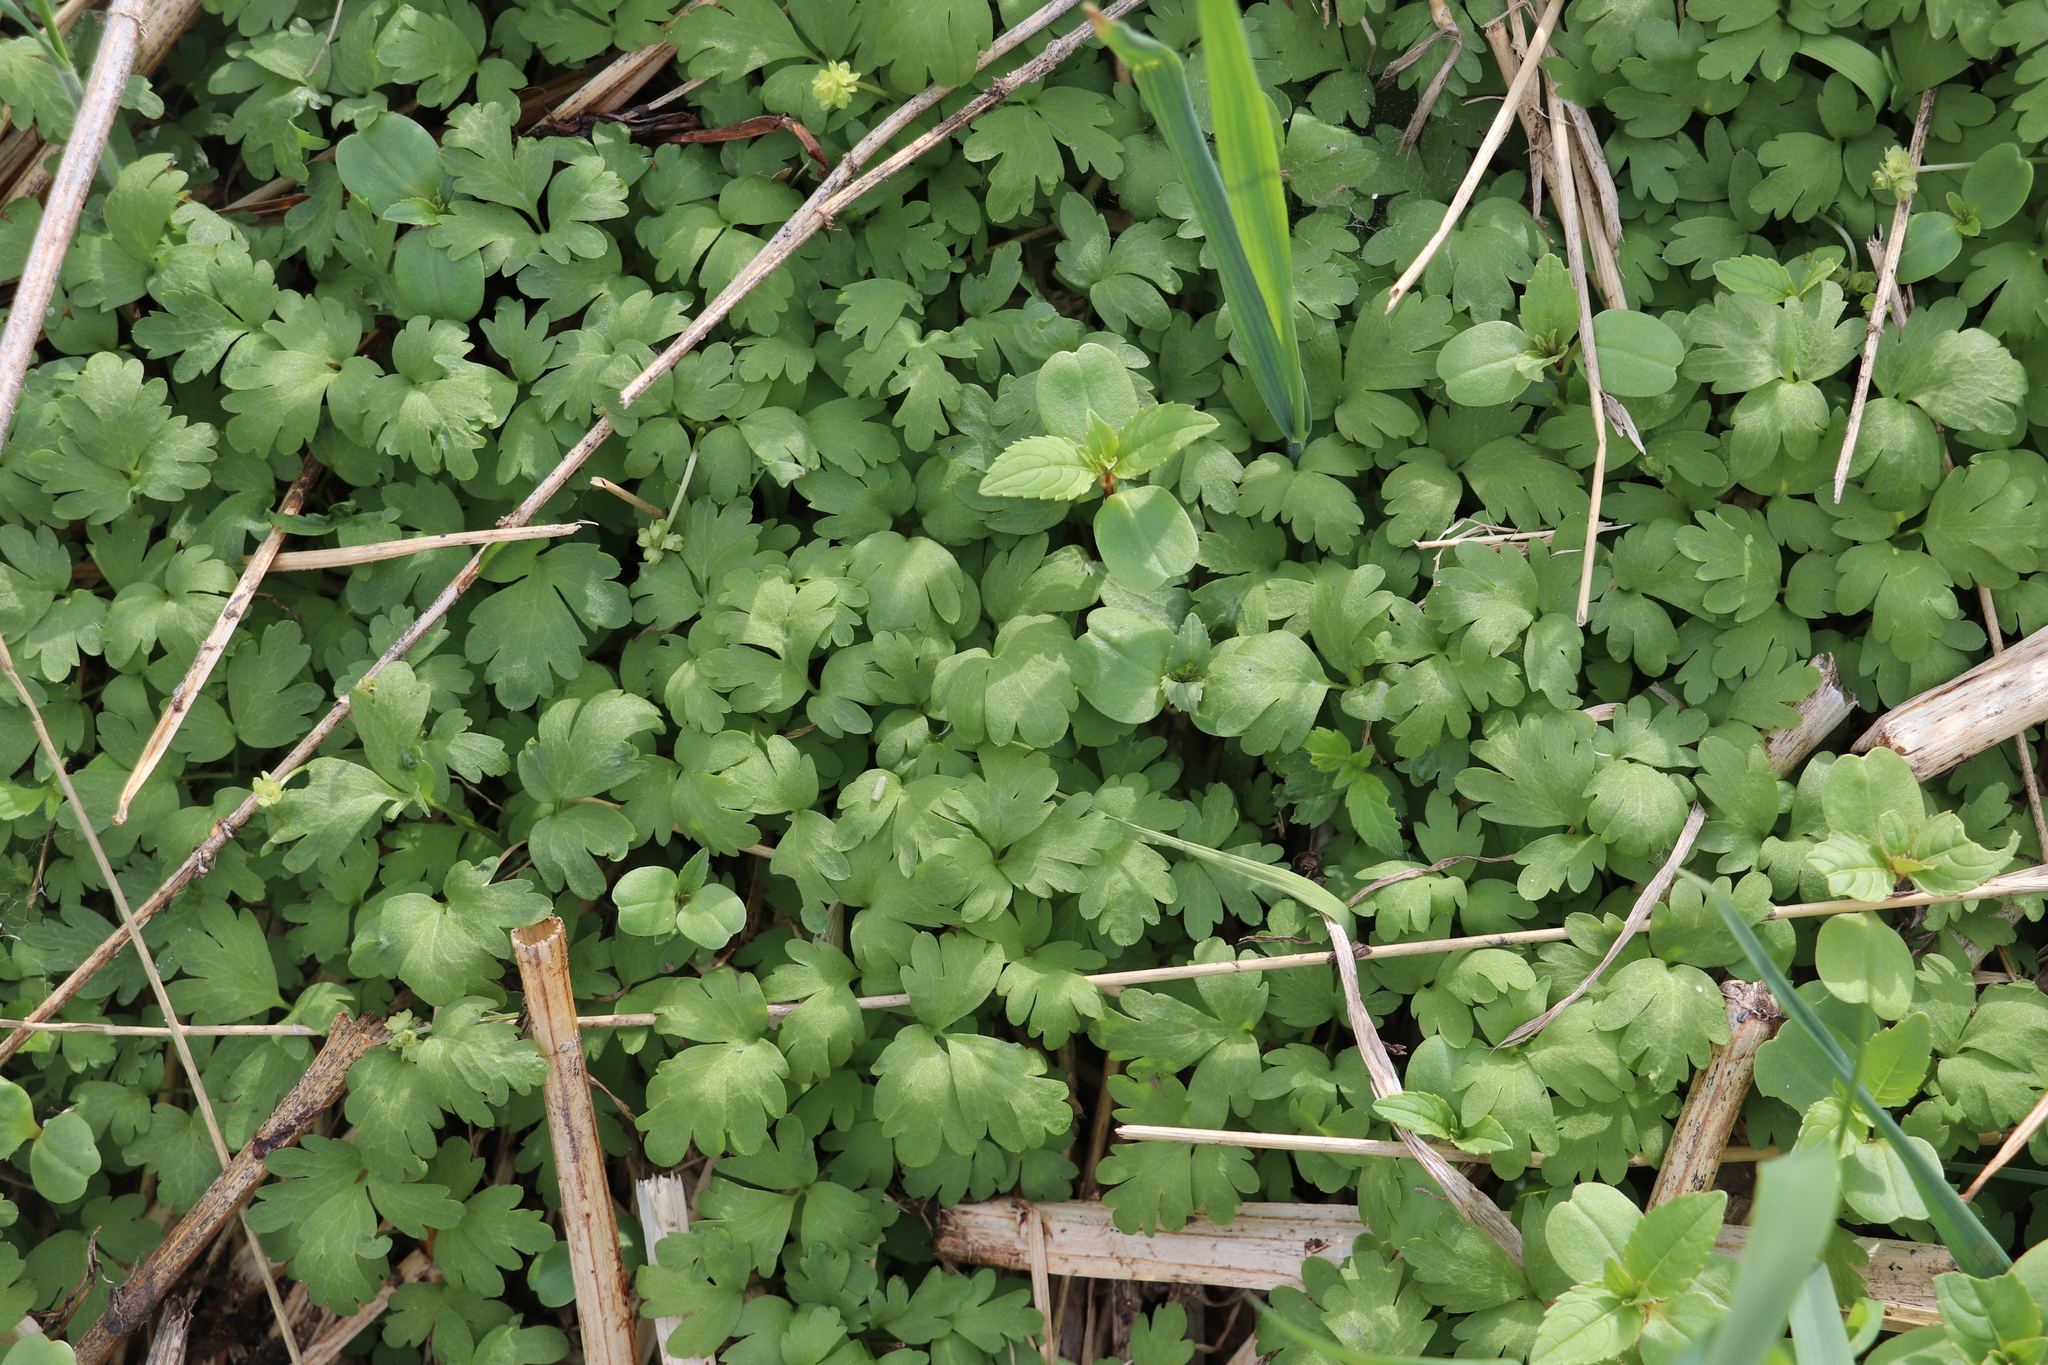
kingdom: Plantae
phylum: Tracheophyta
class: Magnoliopsida
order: Dipsacales
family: Viburnaceae
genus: Adoxa
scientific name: Adoxa moschatellina
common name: Moschatel
